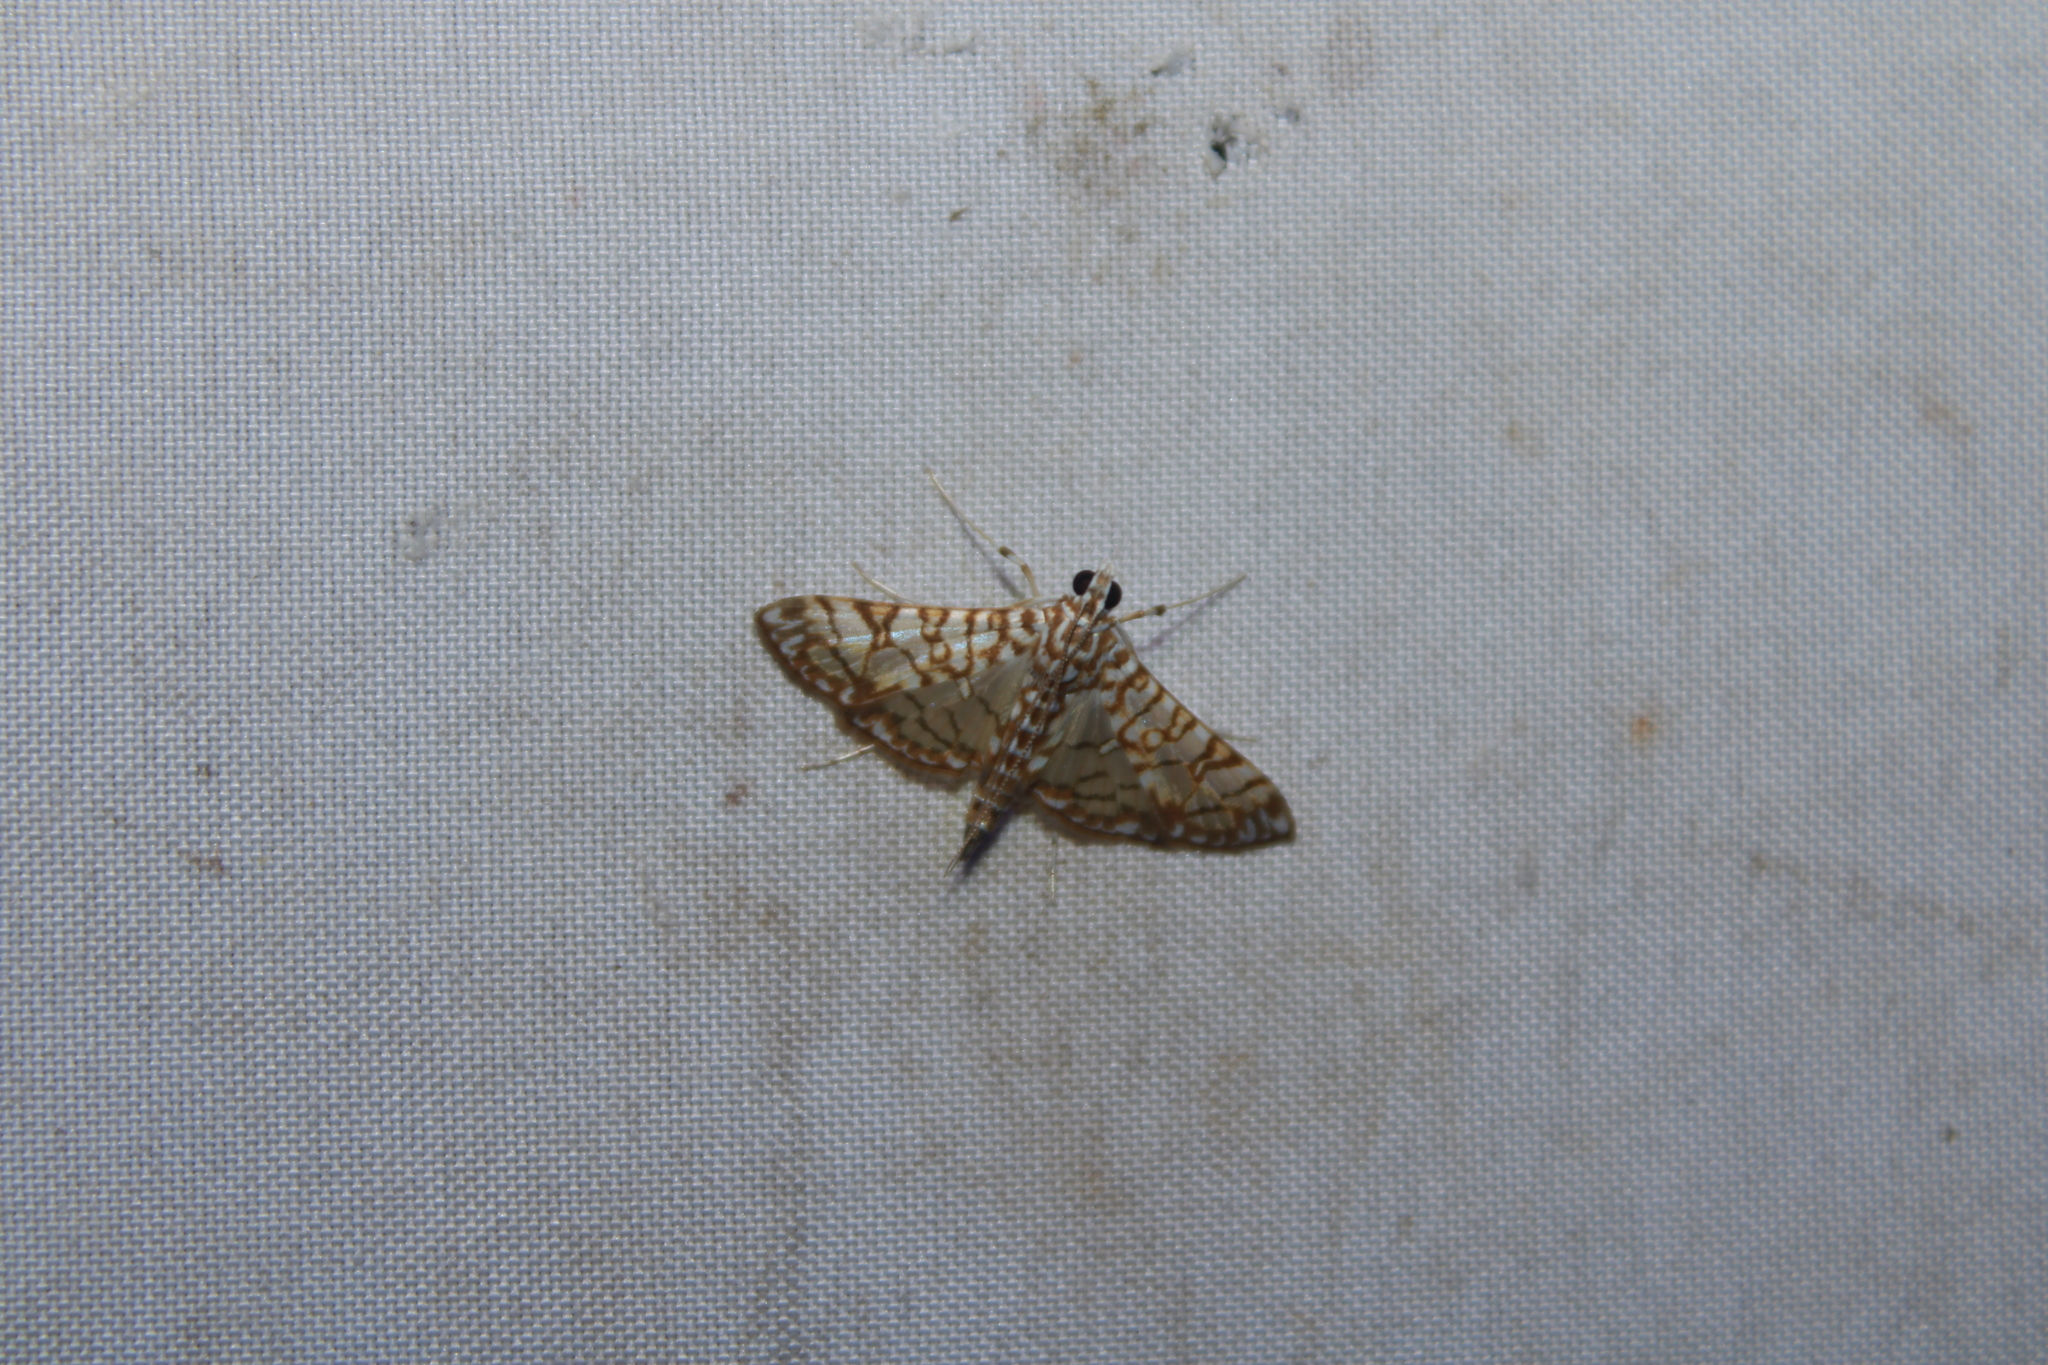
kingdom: Animalia
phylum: Arthropoda
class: Insecta
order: Lepidoptera
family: Crambidae
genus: Synclera
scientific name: Synclera traducalis
